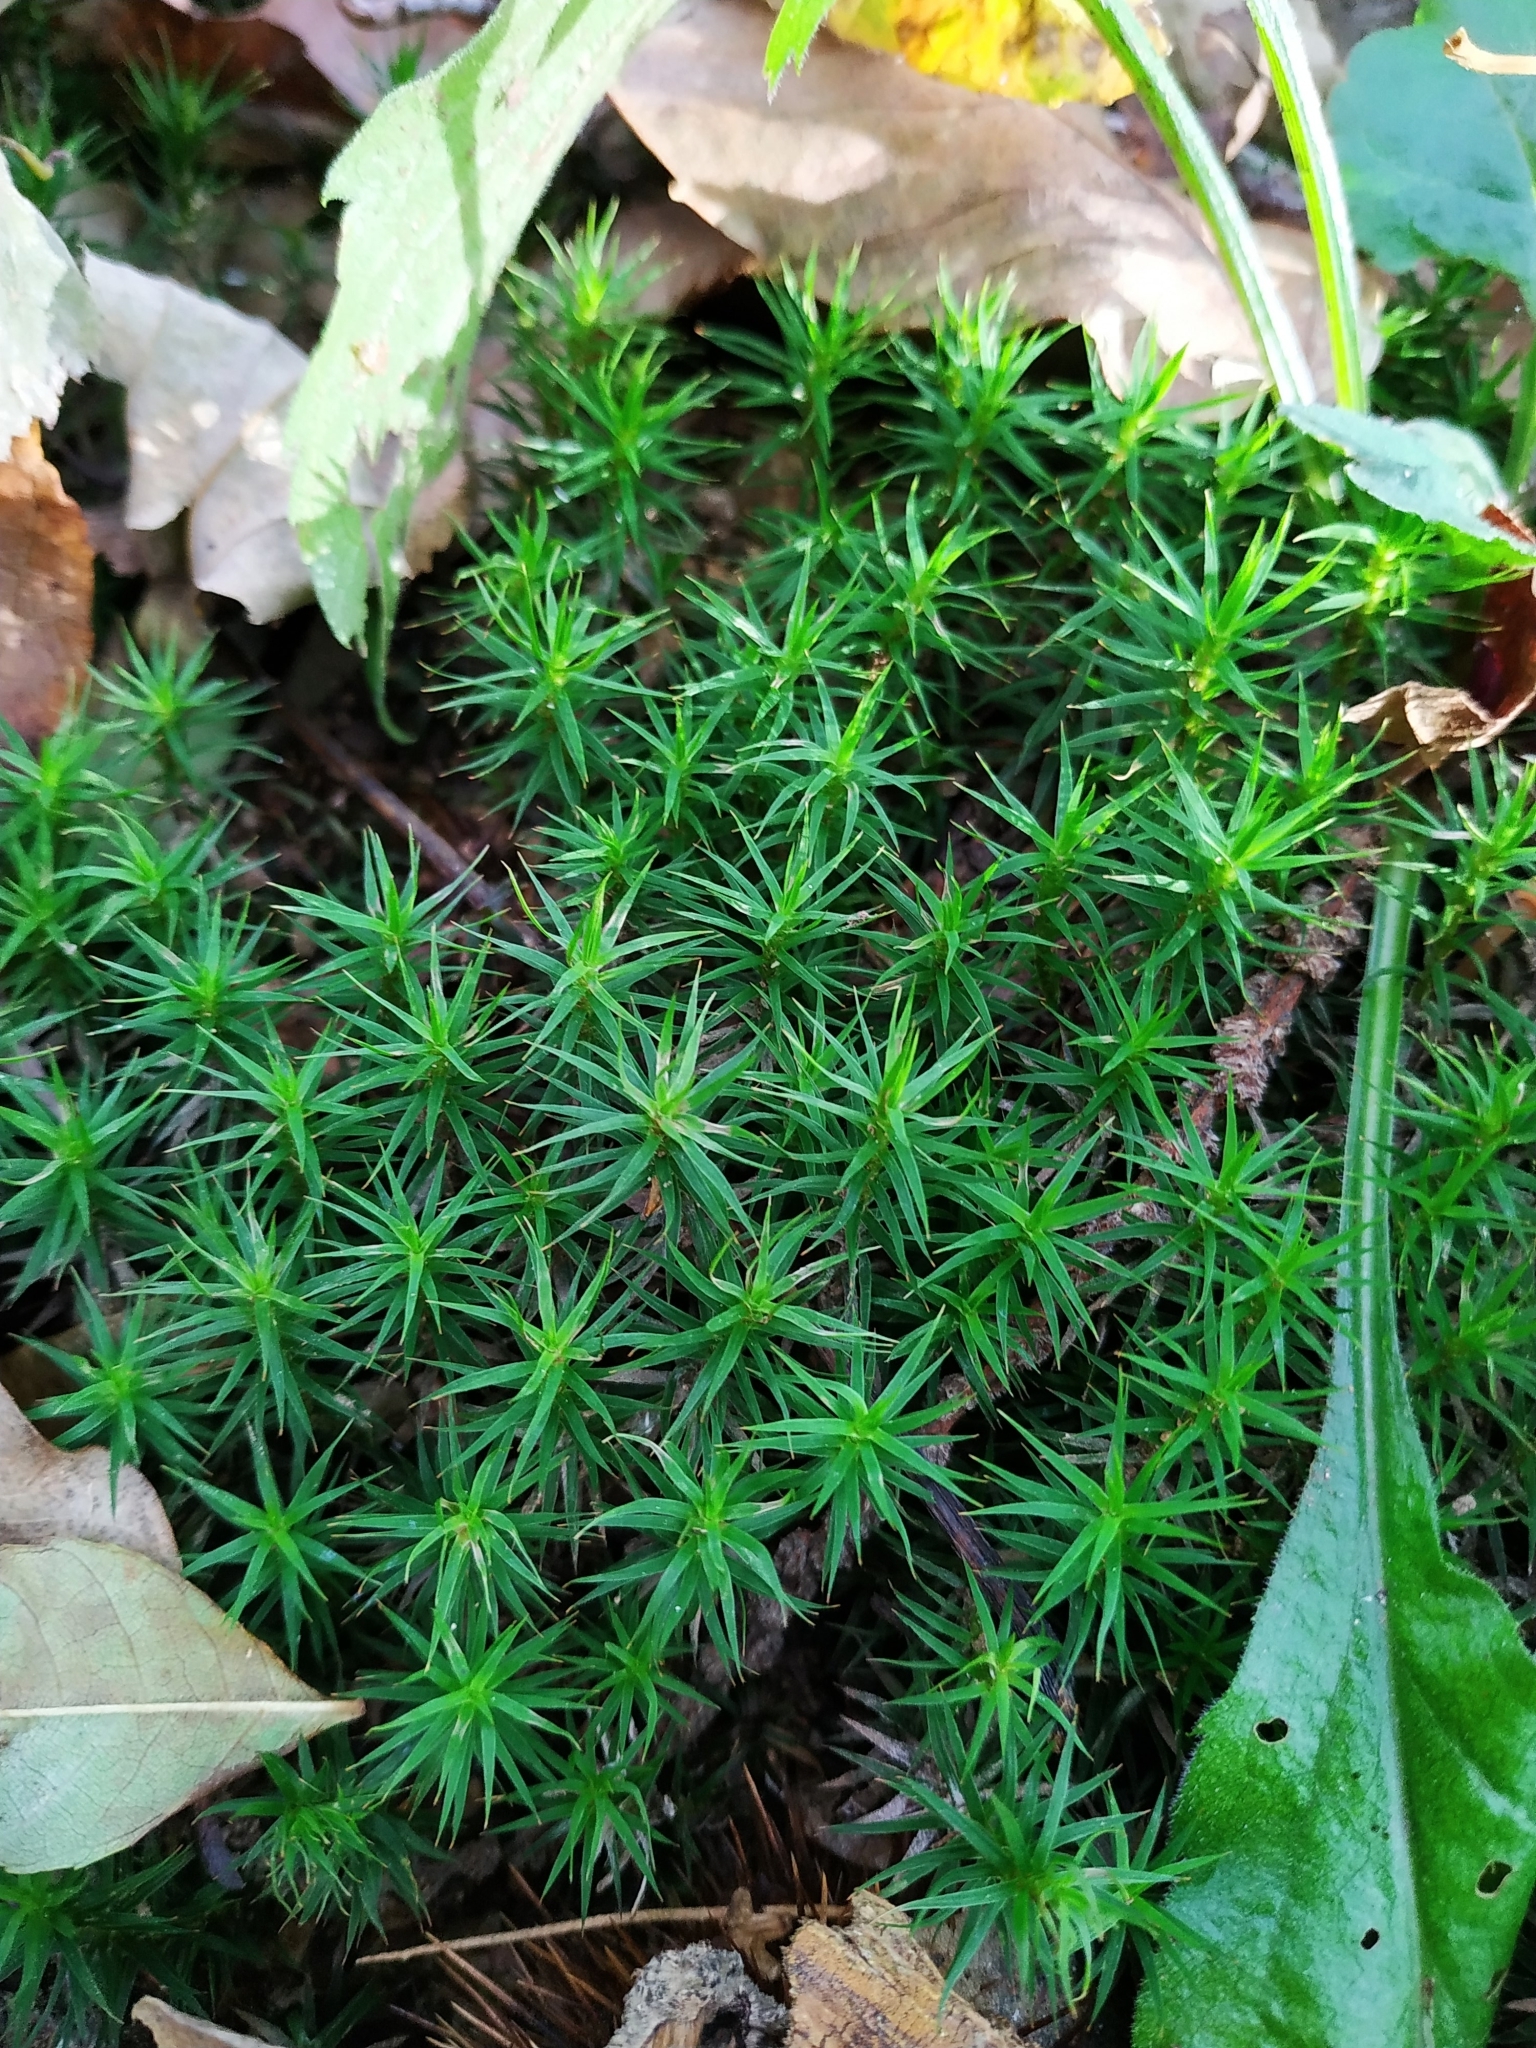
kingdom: Plantae
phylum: Bryophyta
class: Polytrichopsida
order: Polytrichales
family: Polytrichaceae
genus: Polytrichum
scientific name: Polytrichum formosum
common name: Bank haircap moss
